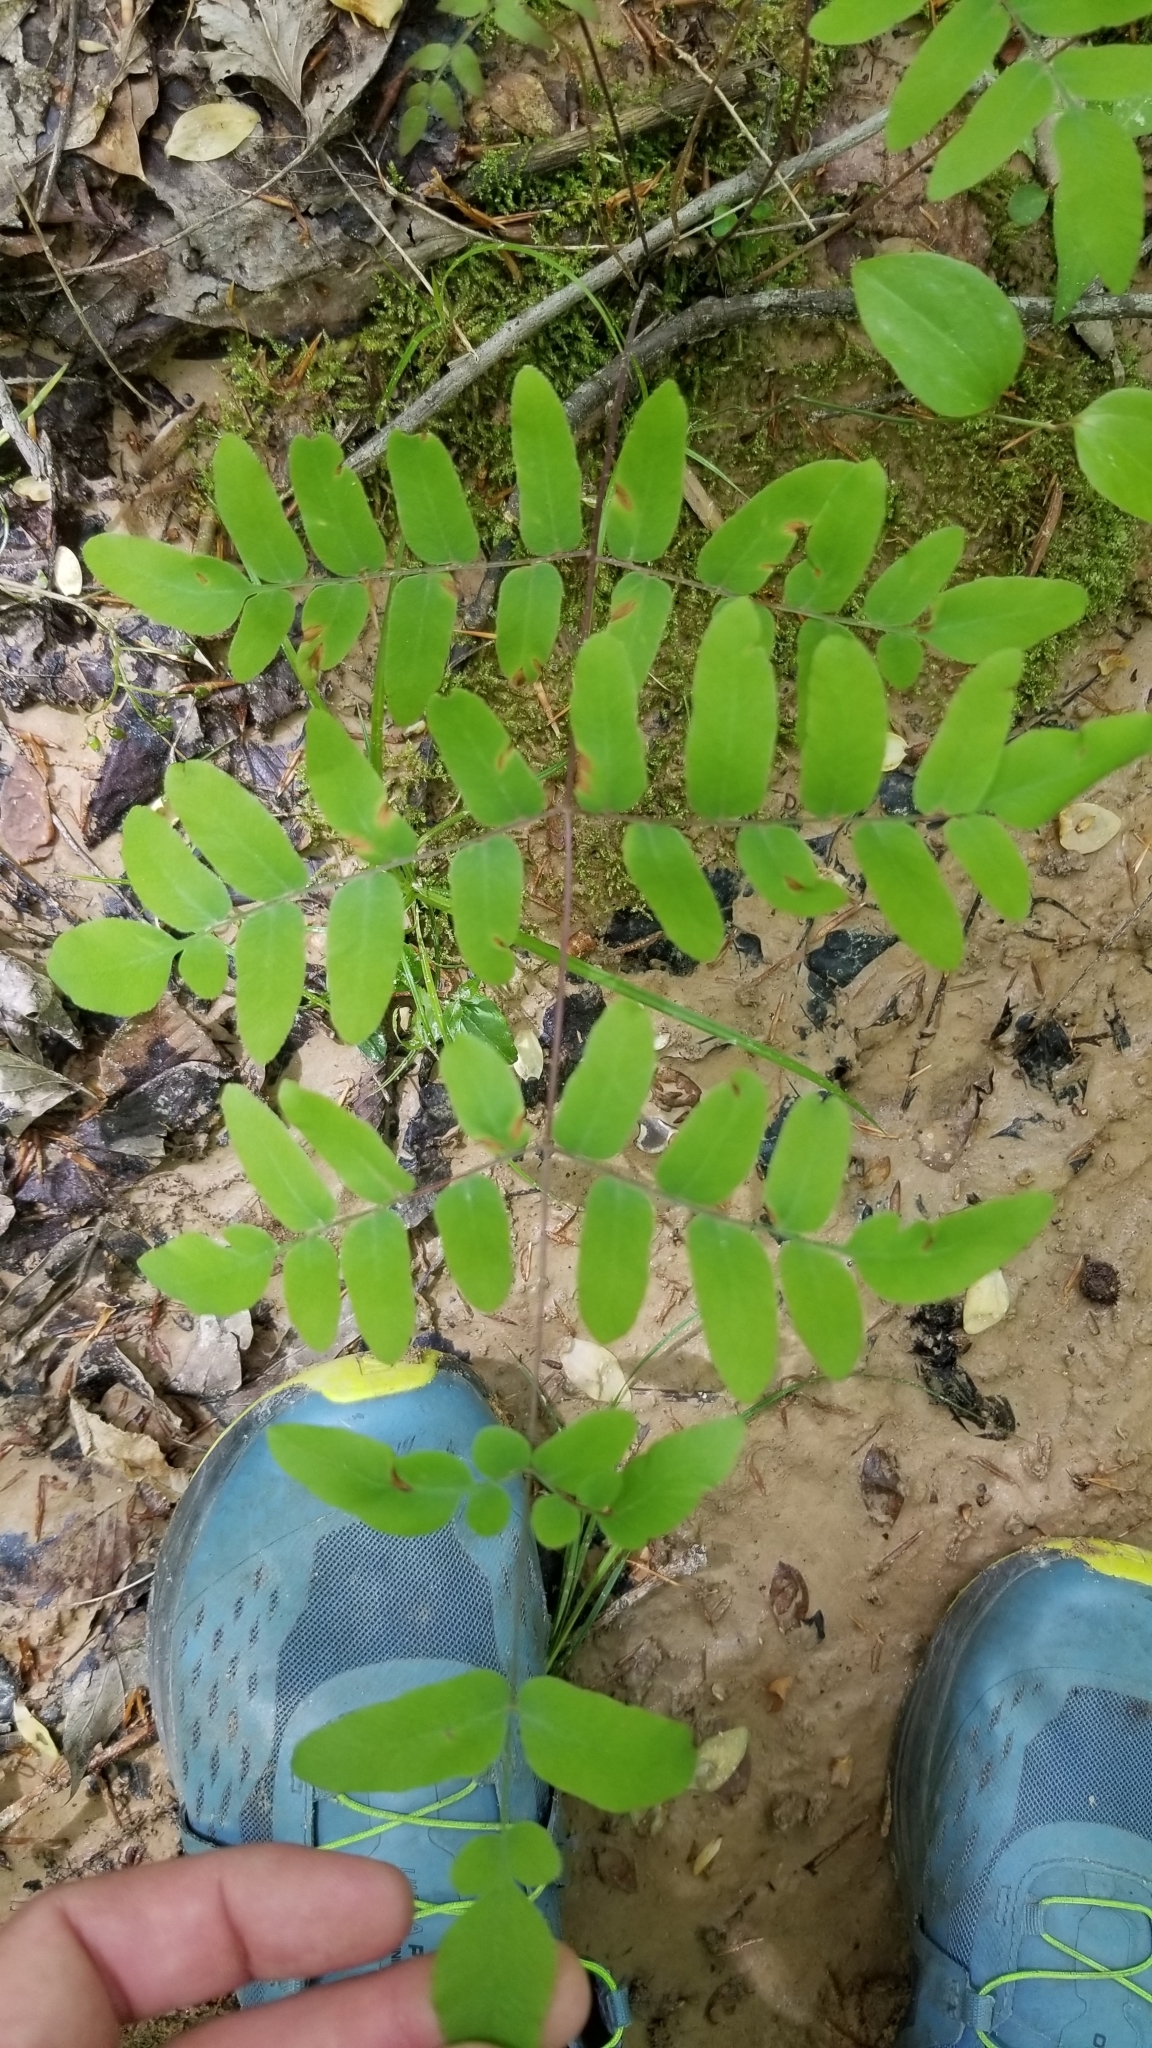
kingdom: Plantae
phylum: Tracheophyta
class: Polypodiopsida
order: Osmundales
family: Osmundaceae
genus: Osmunda
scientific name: Osmunda spectabilis
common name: American royal fern
